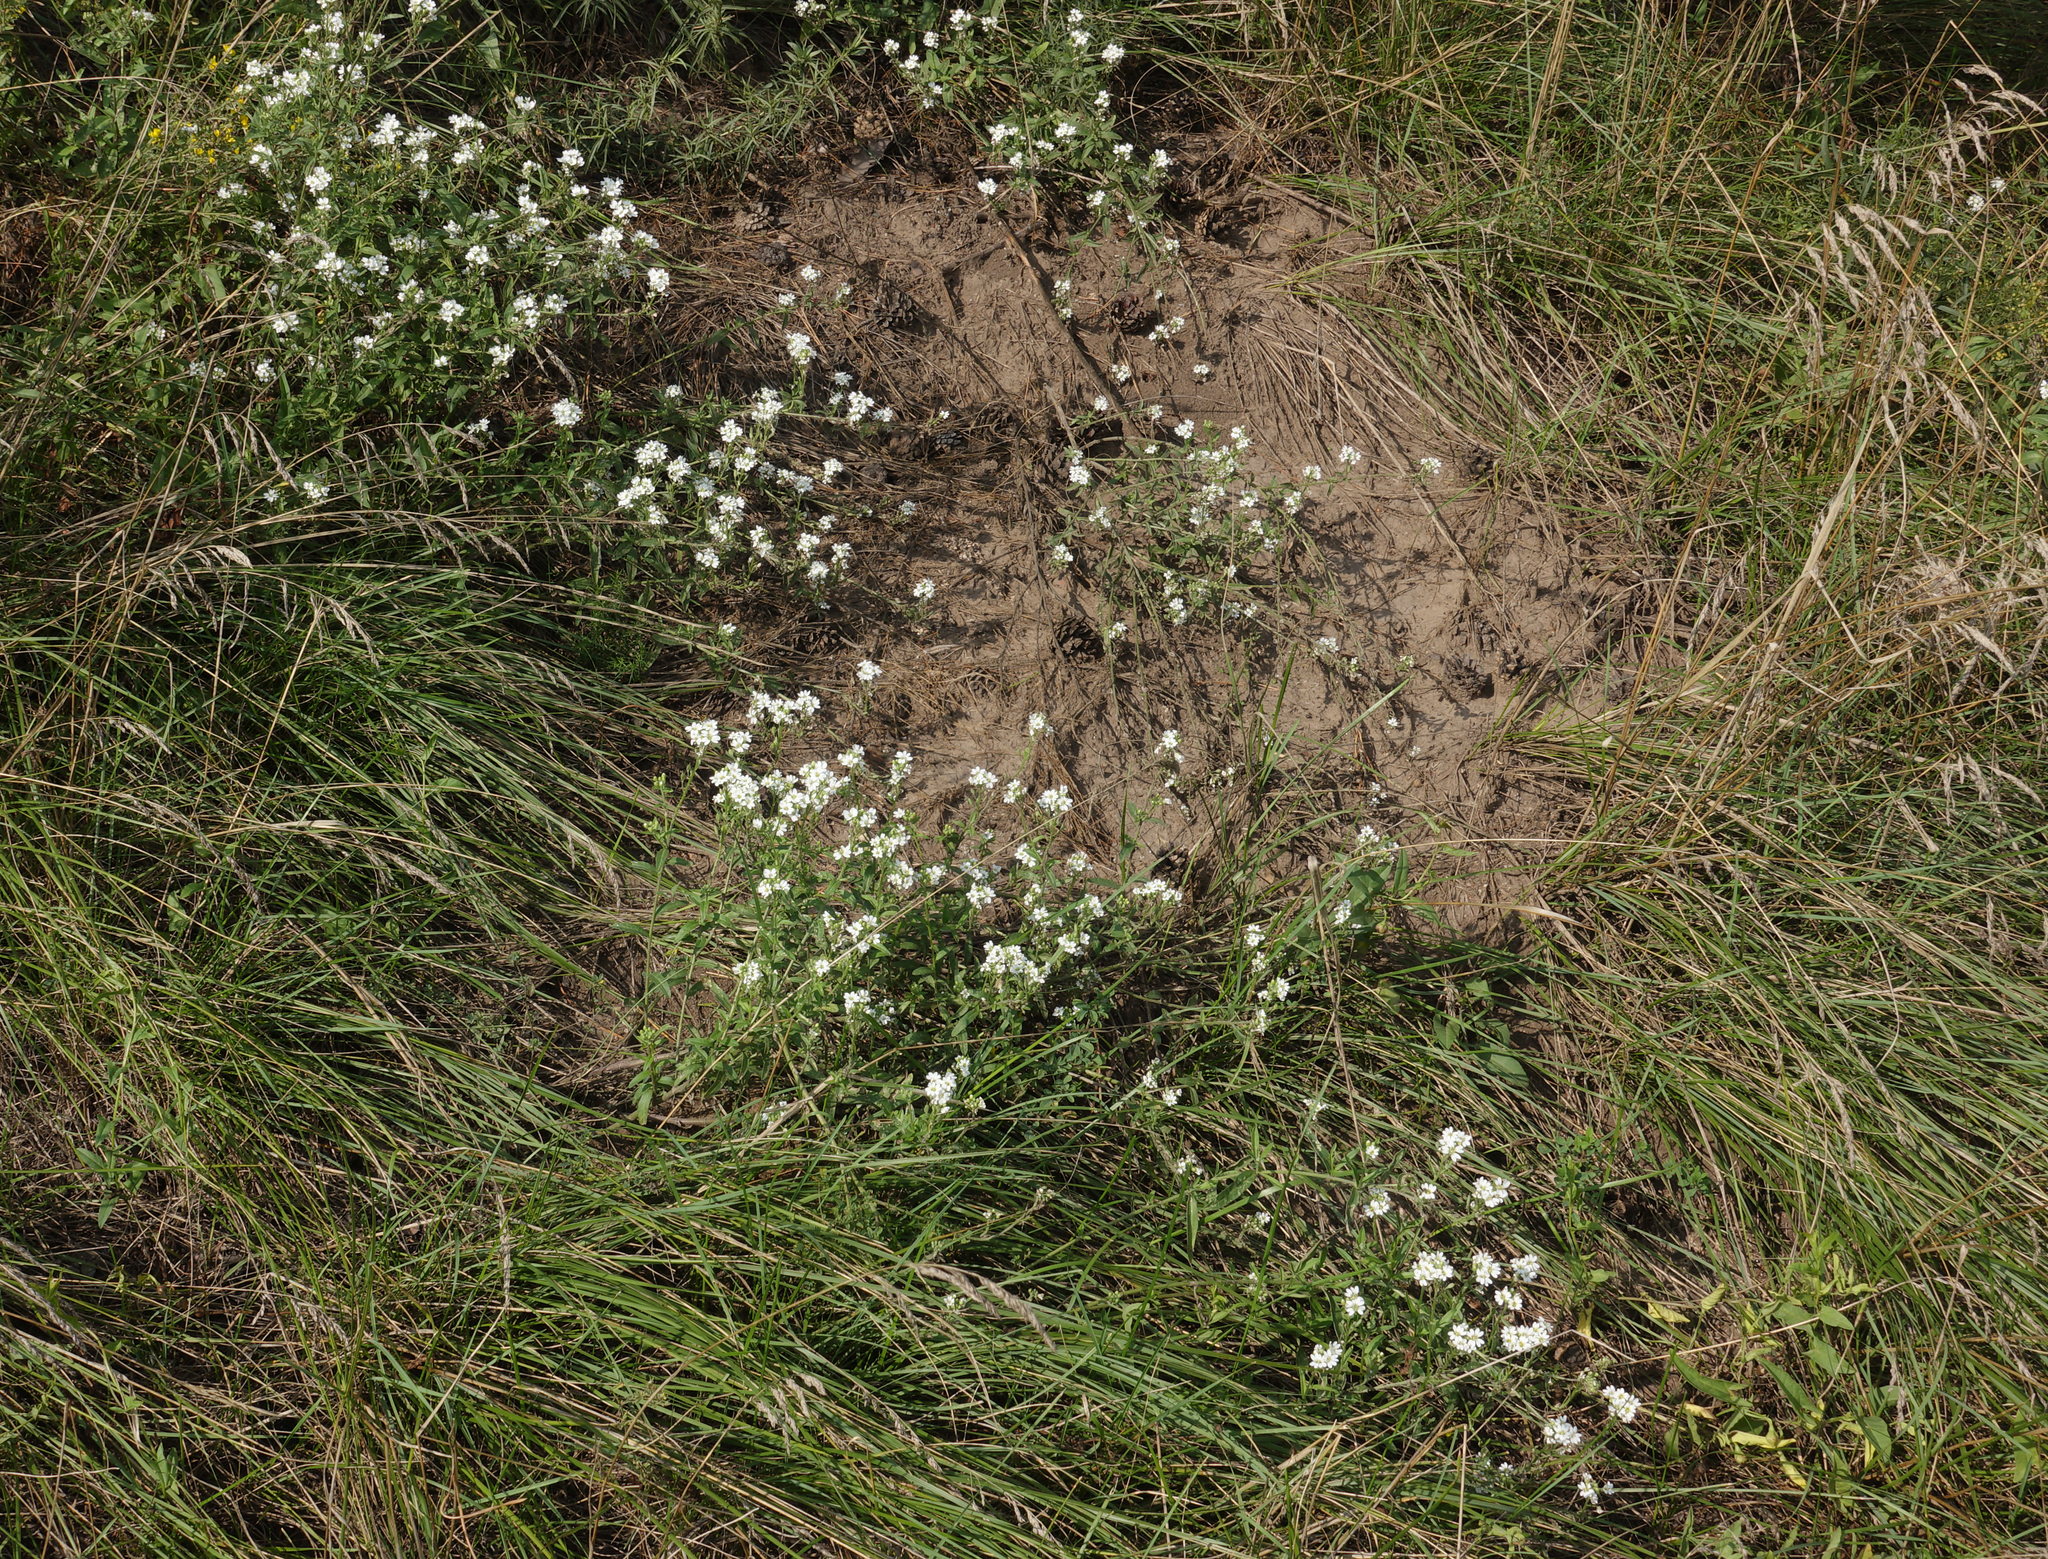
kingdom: Plantae
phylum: Tracheophyta
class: Magnoliopsida
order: Brassicales
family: Brassicaceae
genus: Berteroa
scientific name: Berteroa incana
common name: Hoary alison
